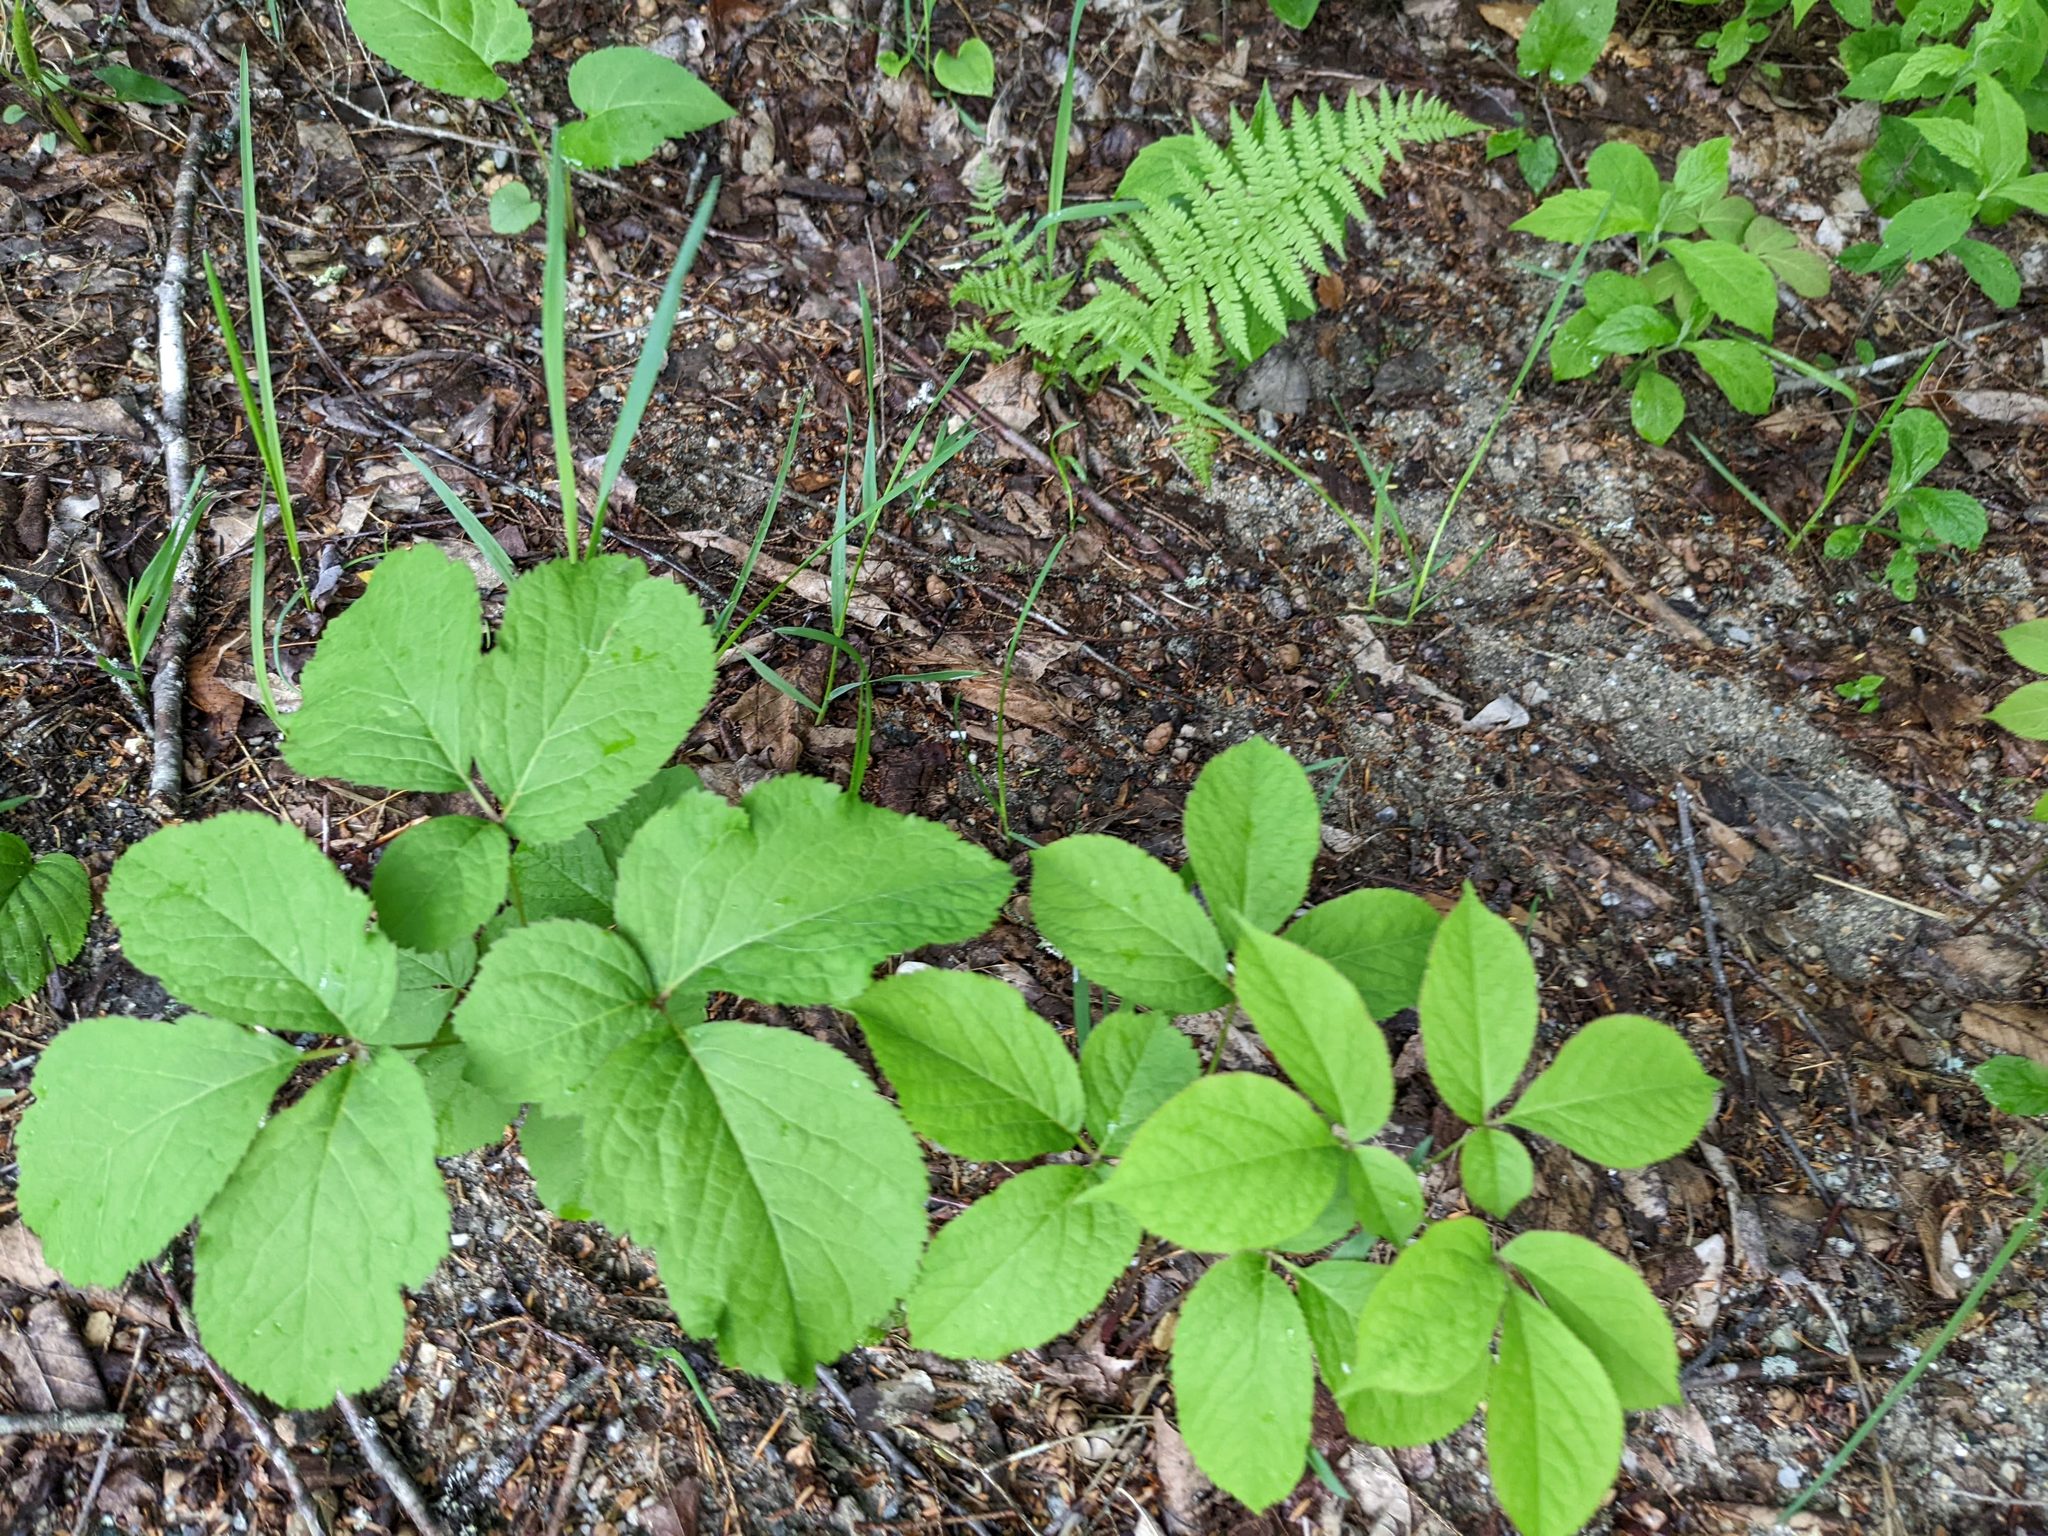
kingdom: Plantae
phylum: Tracheophyta
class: Magnoliopsida
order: Apiales
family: Araliaceae
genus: Aralia
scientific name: Aralia nudicaulis
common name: Wild sarsaparilla
